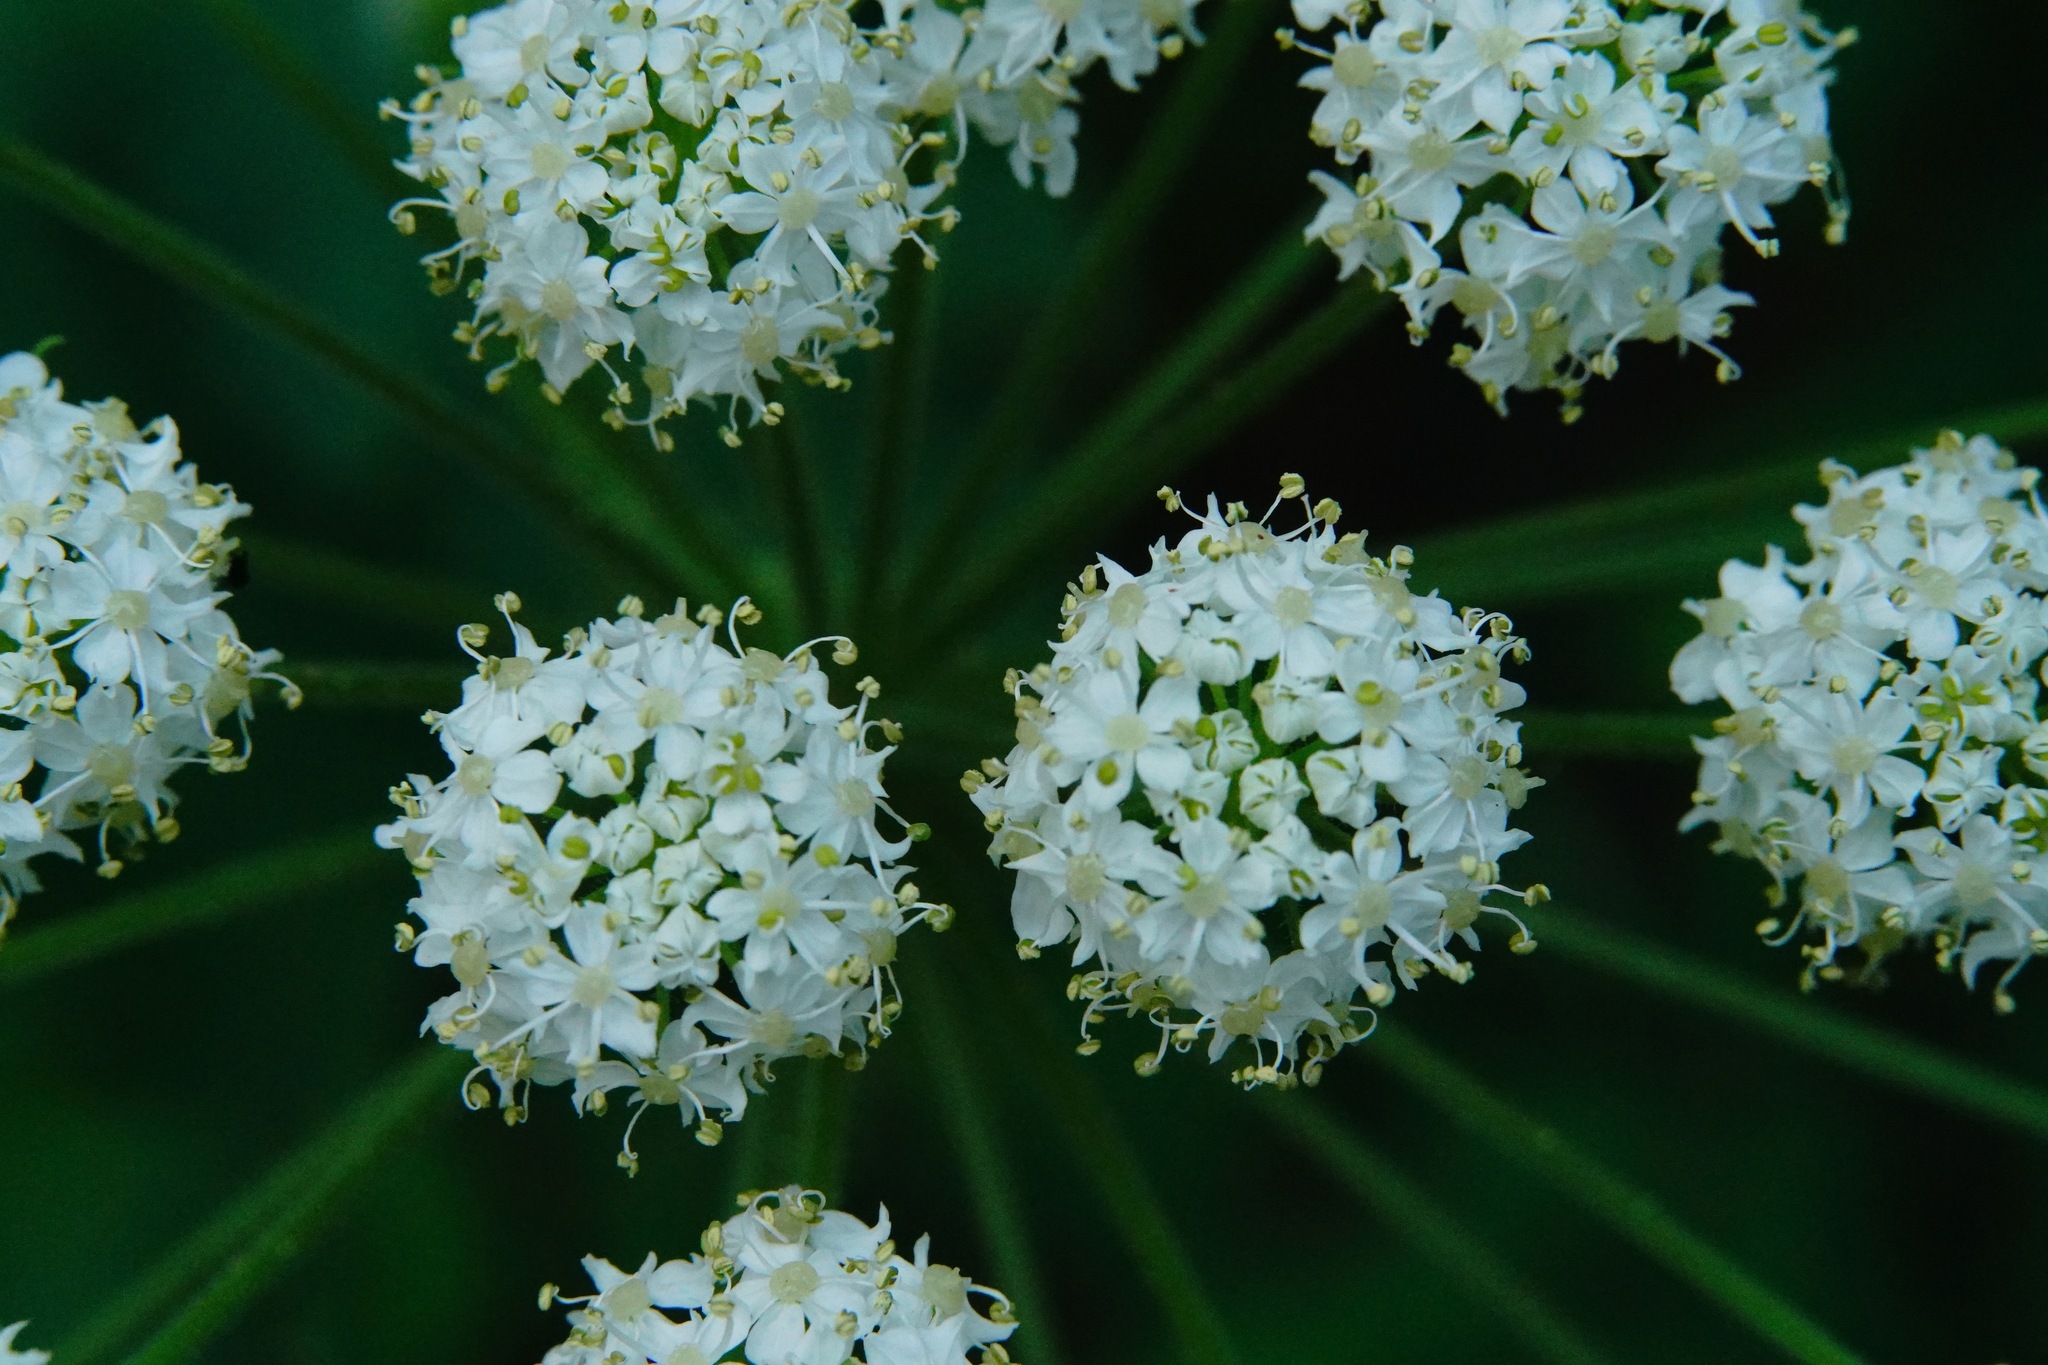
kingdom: Plantae
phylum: Tracheophyta
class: Magnoliopsida
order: Apiales
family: Apiaceae
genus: Heracleum
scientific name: Heracleum maximum
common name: American cow parsnip
